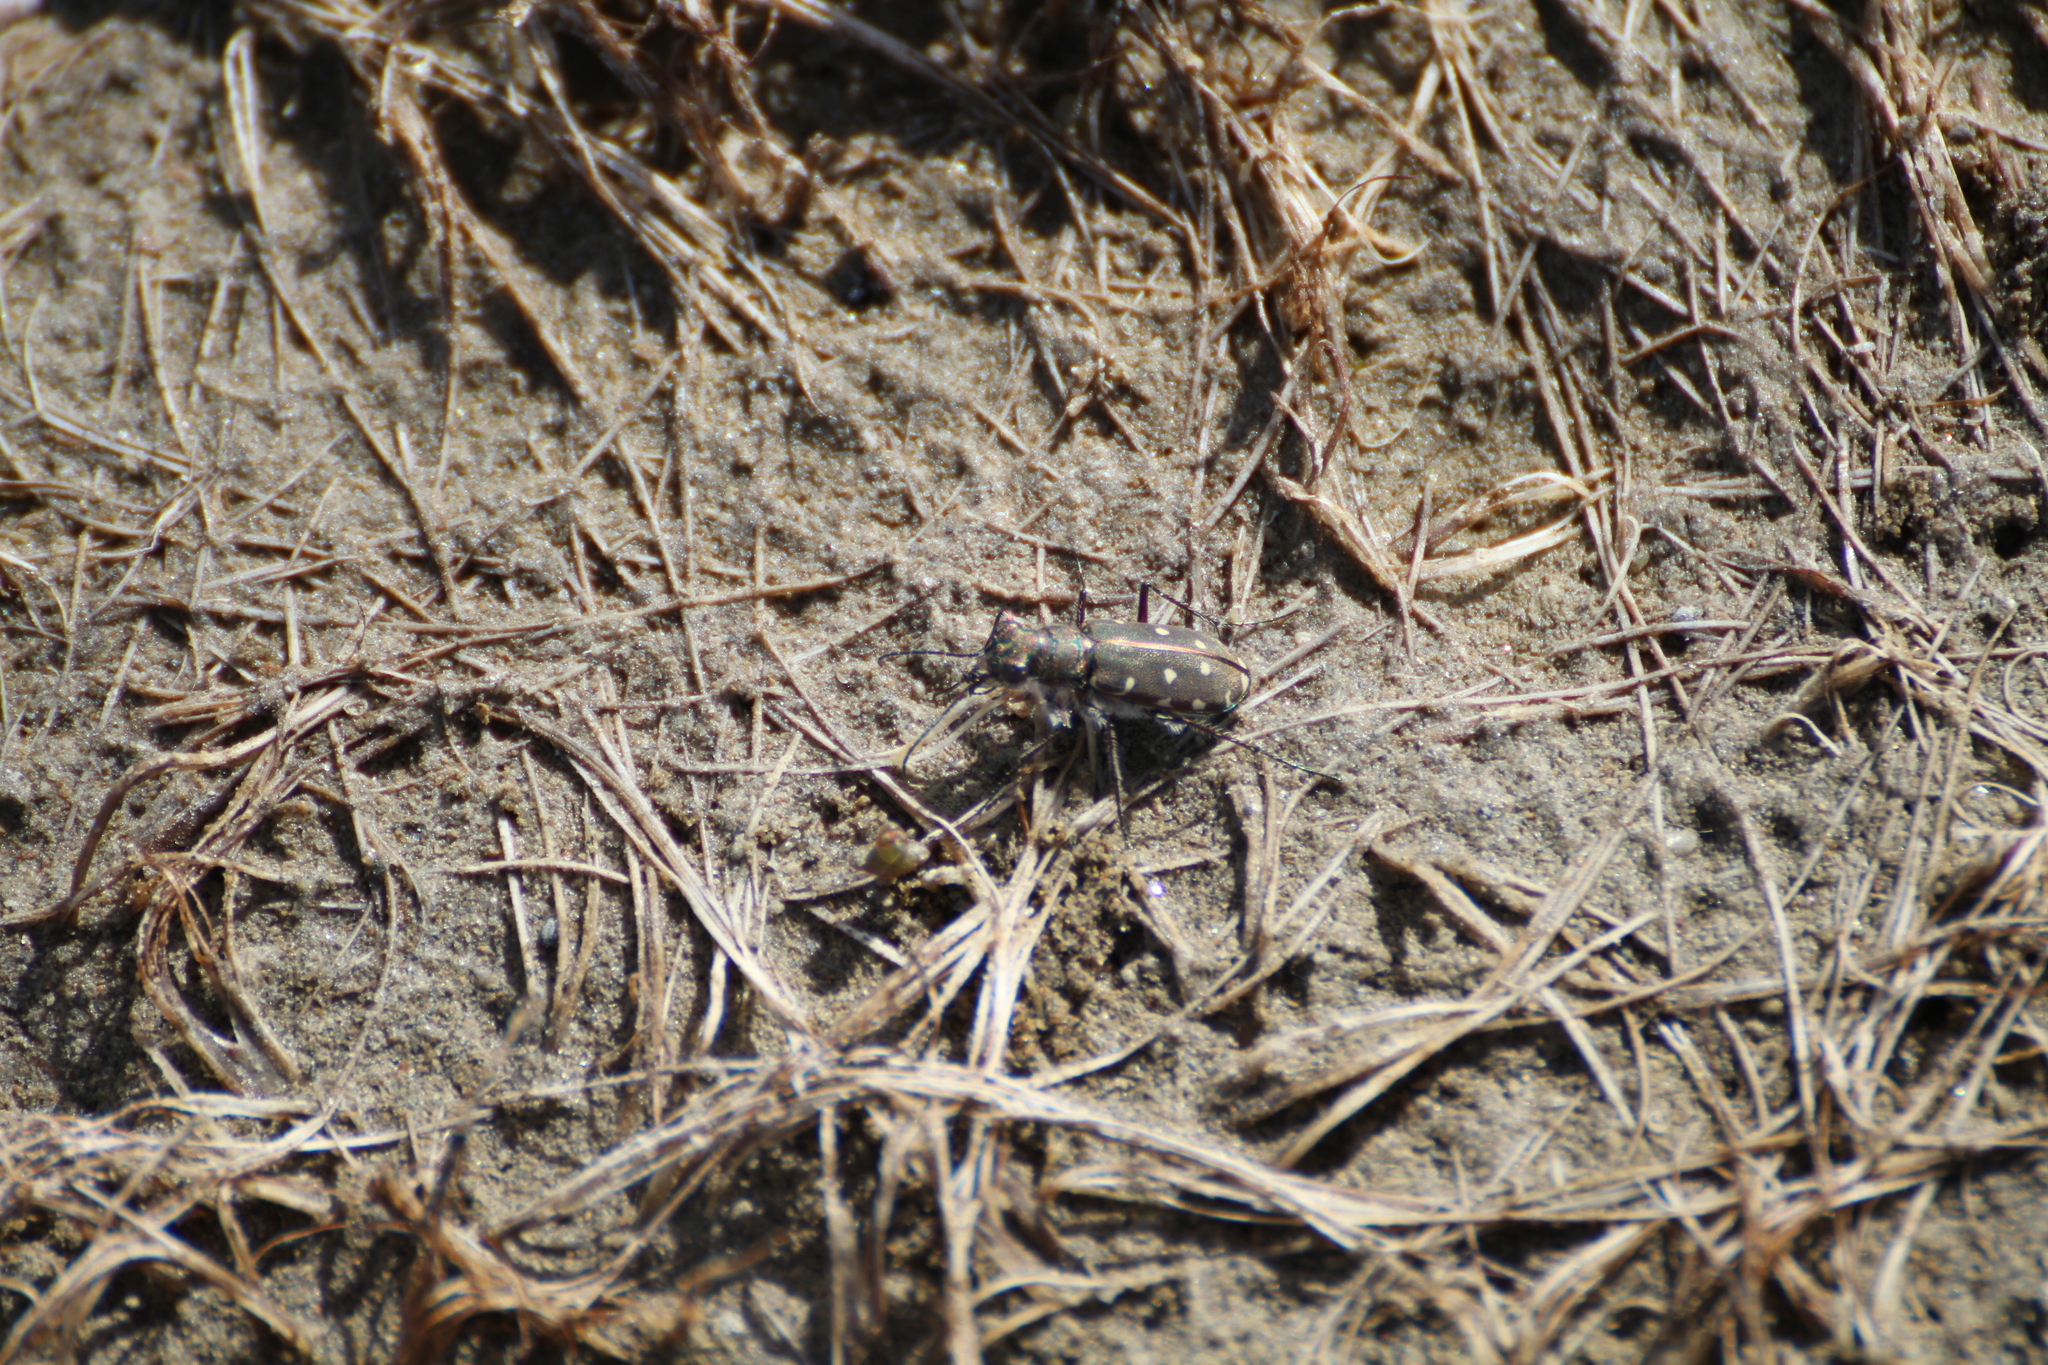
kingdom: Animalia
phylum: Arthropoda
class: Insecta
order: Coleoptera
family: Carabidae
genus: Cicindela
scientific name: Cicindela littoralis
